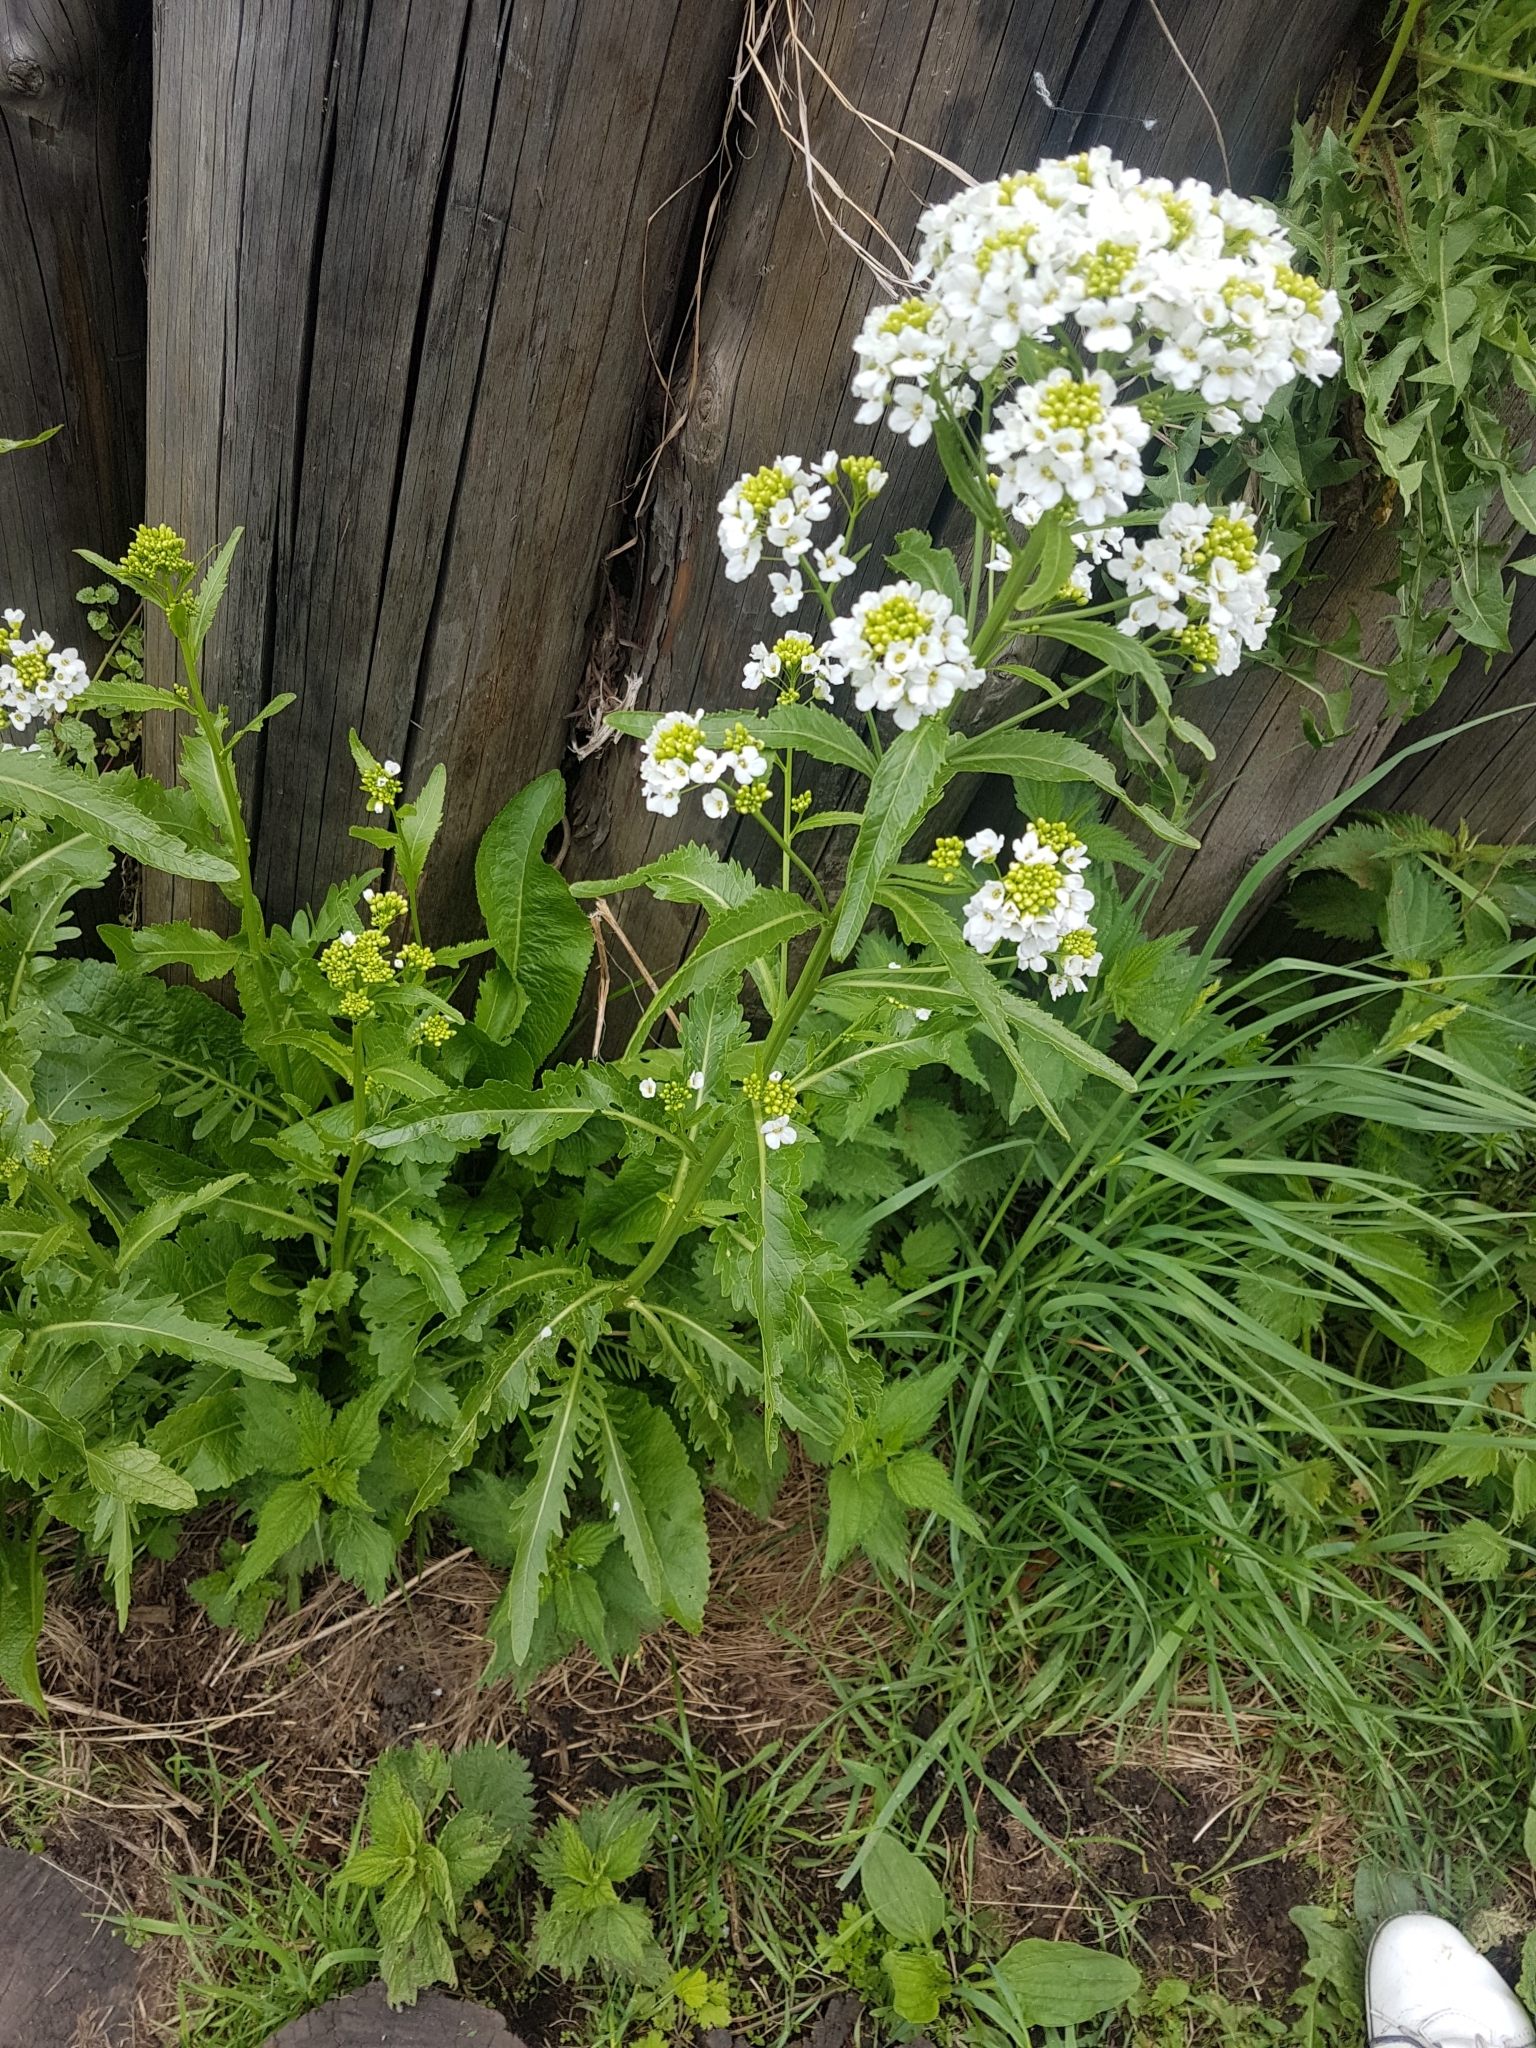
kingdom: Plantae
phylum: Tracheophyta
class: Magnoliopsida
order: Brassicales
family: Brassicaceae
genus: Armoracia
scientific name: Armoracia rusticana
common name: Horseradish
